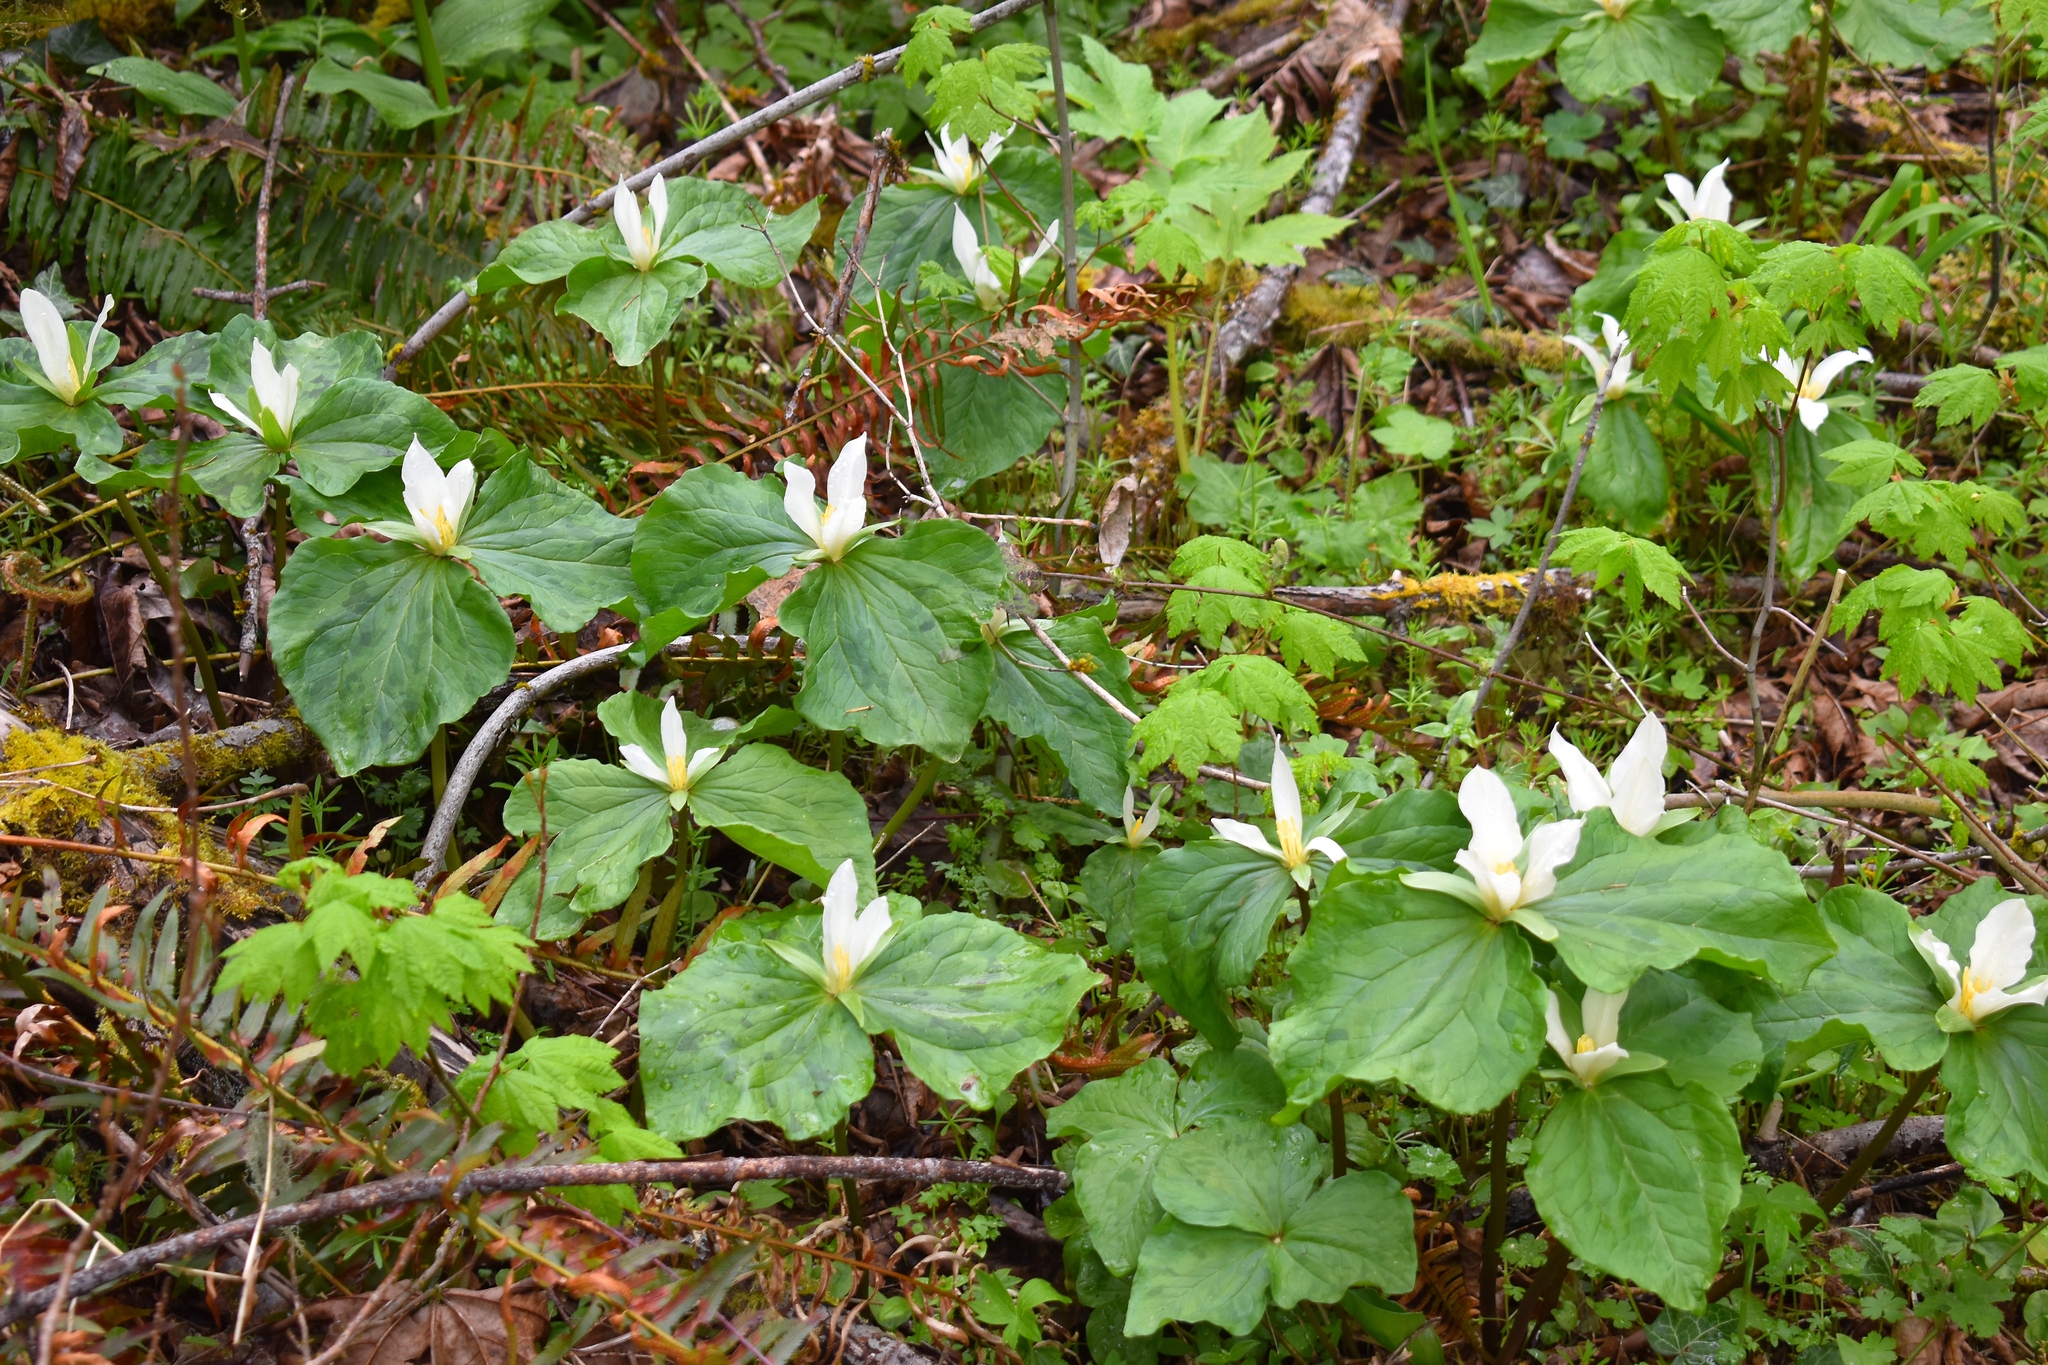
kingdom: Plantae
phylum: Tracheophyta
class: Liliopsida
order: Liliales
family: Melanthiaceae
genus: Trillium
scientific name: Trillium albidum
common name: Freeman's trillium
